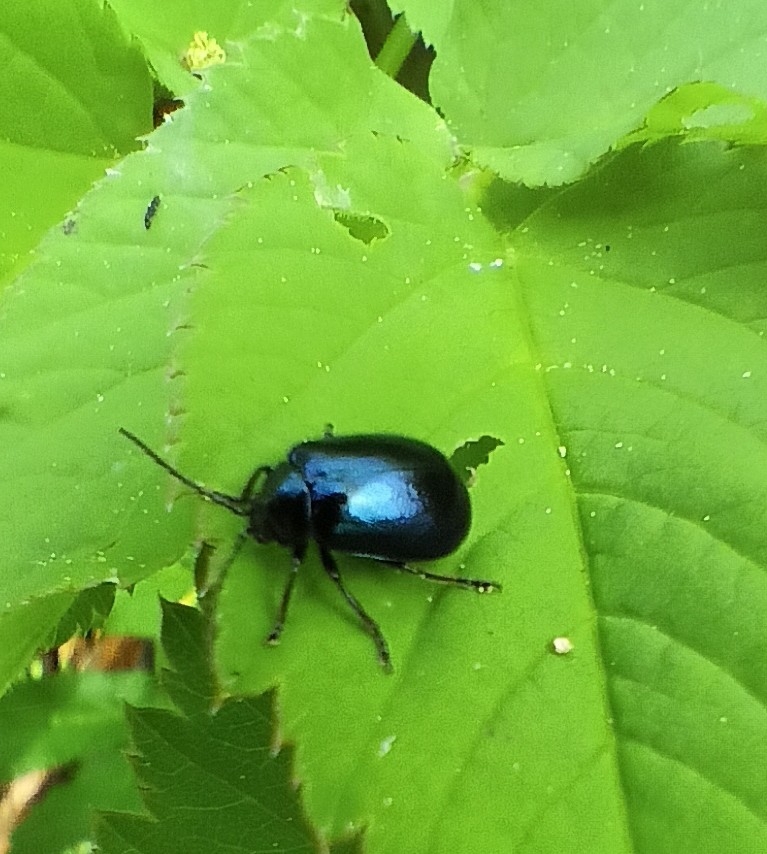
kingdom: Animalia
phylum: Arthropoda
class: Insecta
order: Coleoptera
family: Chrysomelidae
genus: Agelastica
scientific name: Agelastica alni
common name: Alder leaf beetle
